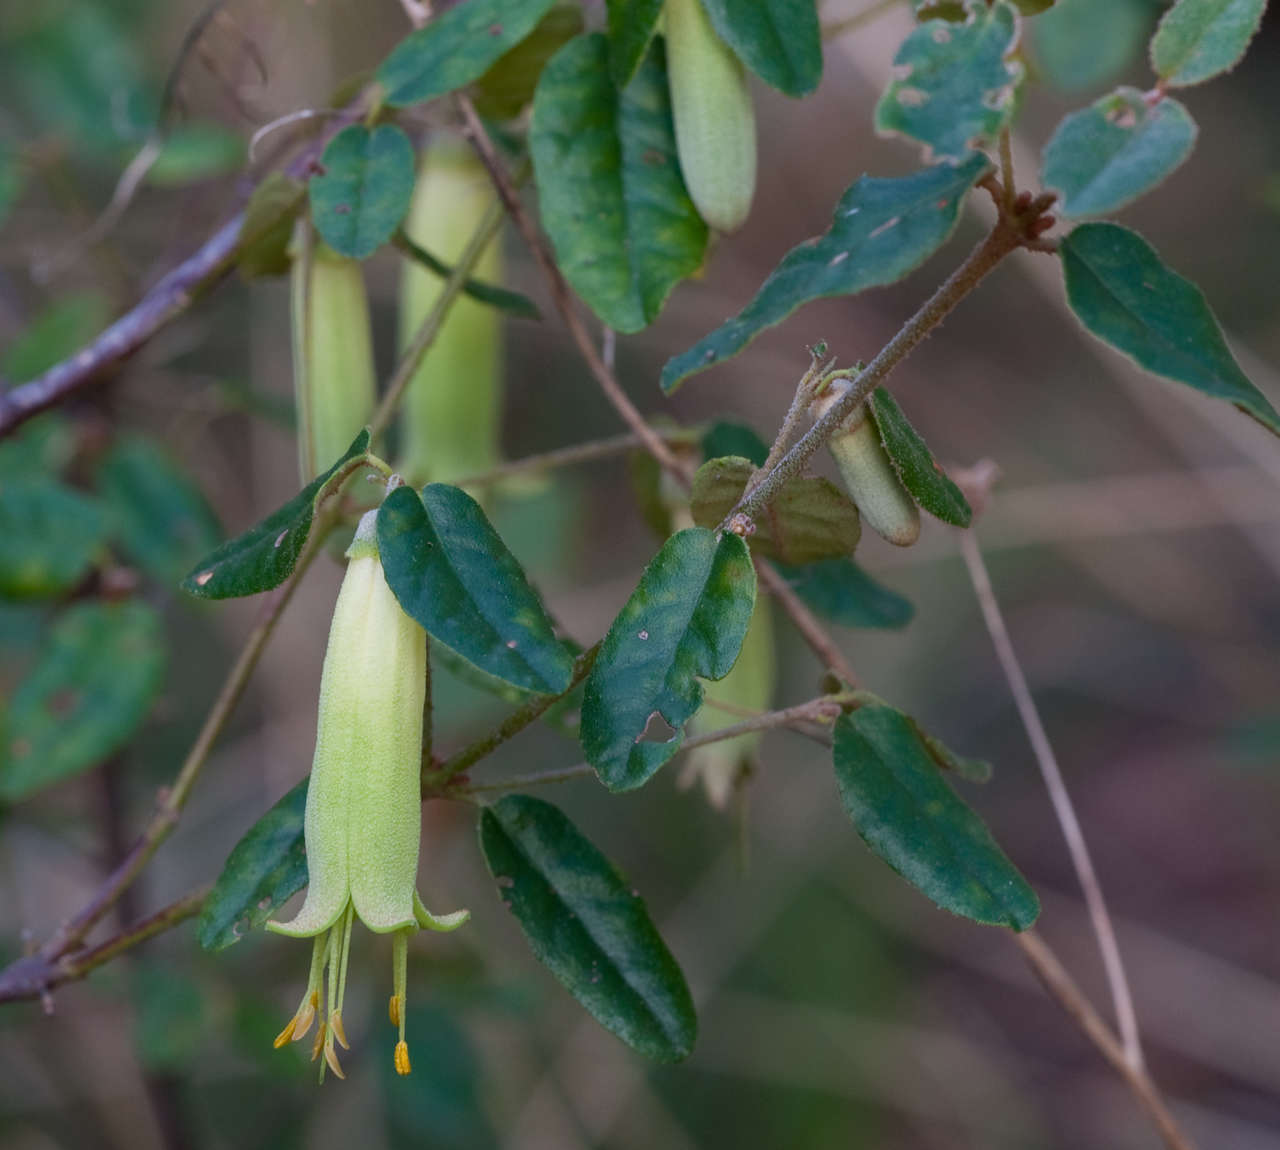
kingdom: Plantae
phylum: Tracheophyta
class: Magnoliopsida
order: Sapindales
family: Rutaceae
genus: Correa
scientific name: Correa reflexa
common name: Common correa
